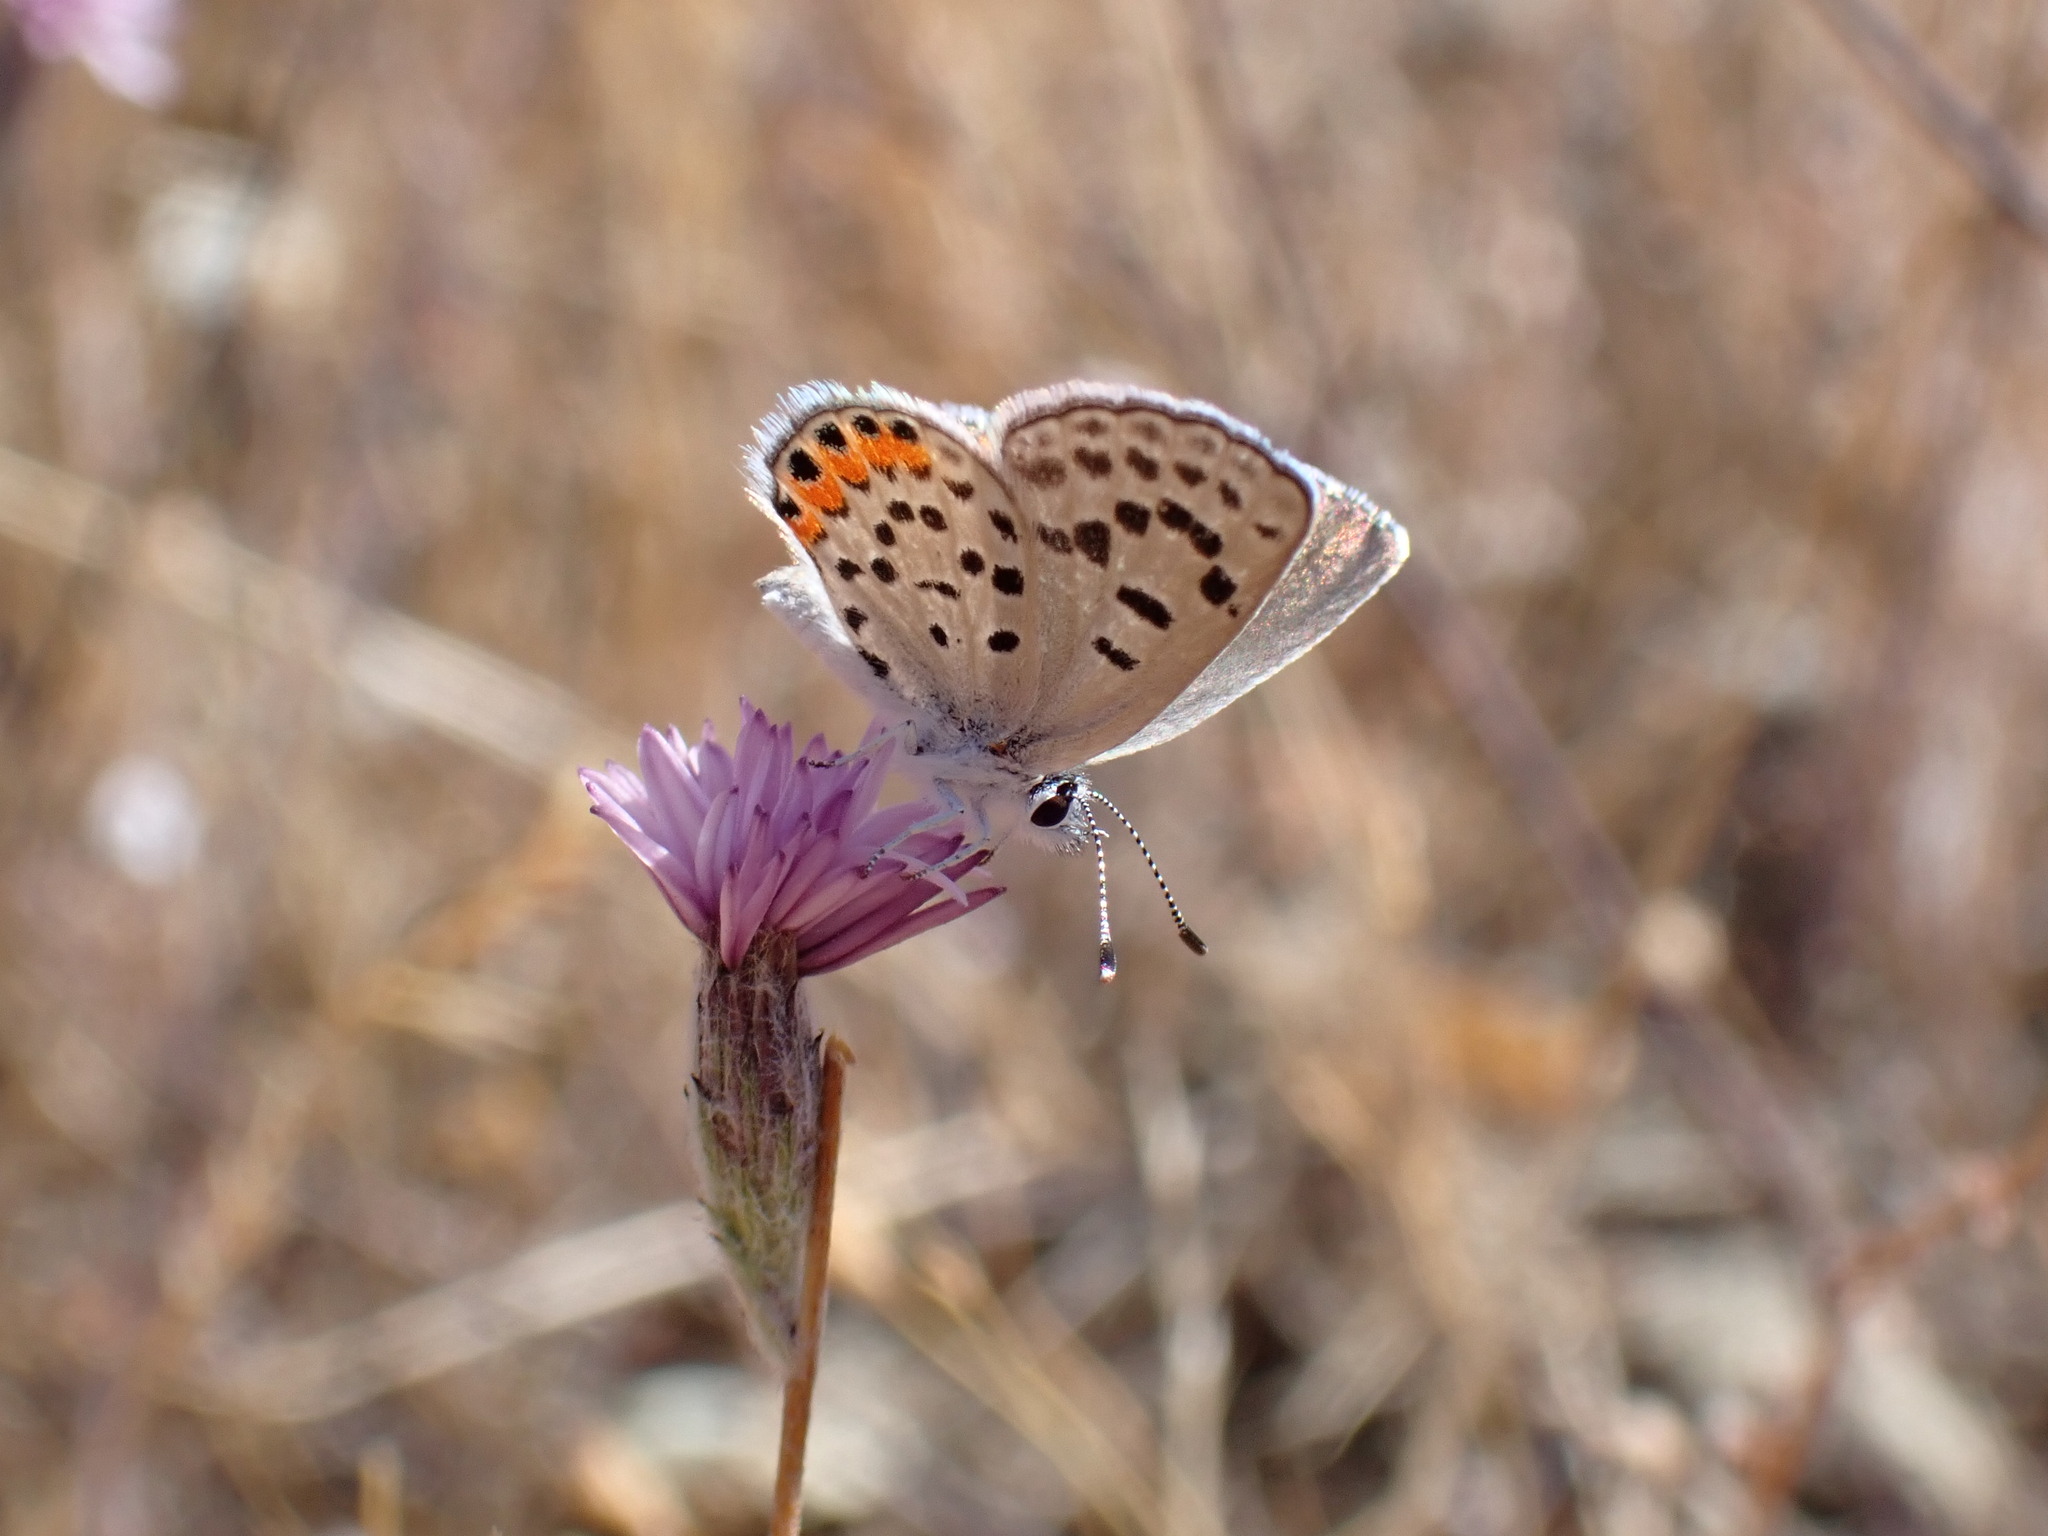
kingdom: Animalia
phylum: Arthropoda
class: Insecta
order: Lepidoptera
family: Lycaenidae
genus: Icaricia
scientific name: Icaricia acmon
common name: Acmon blue
